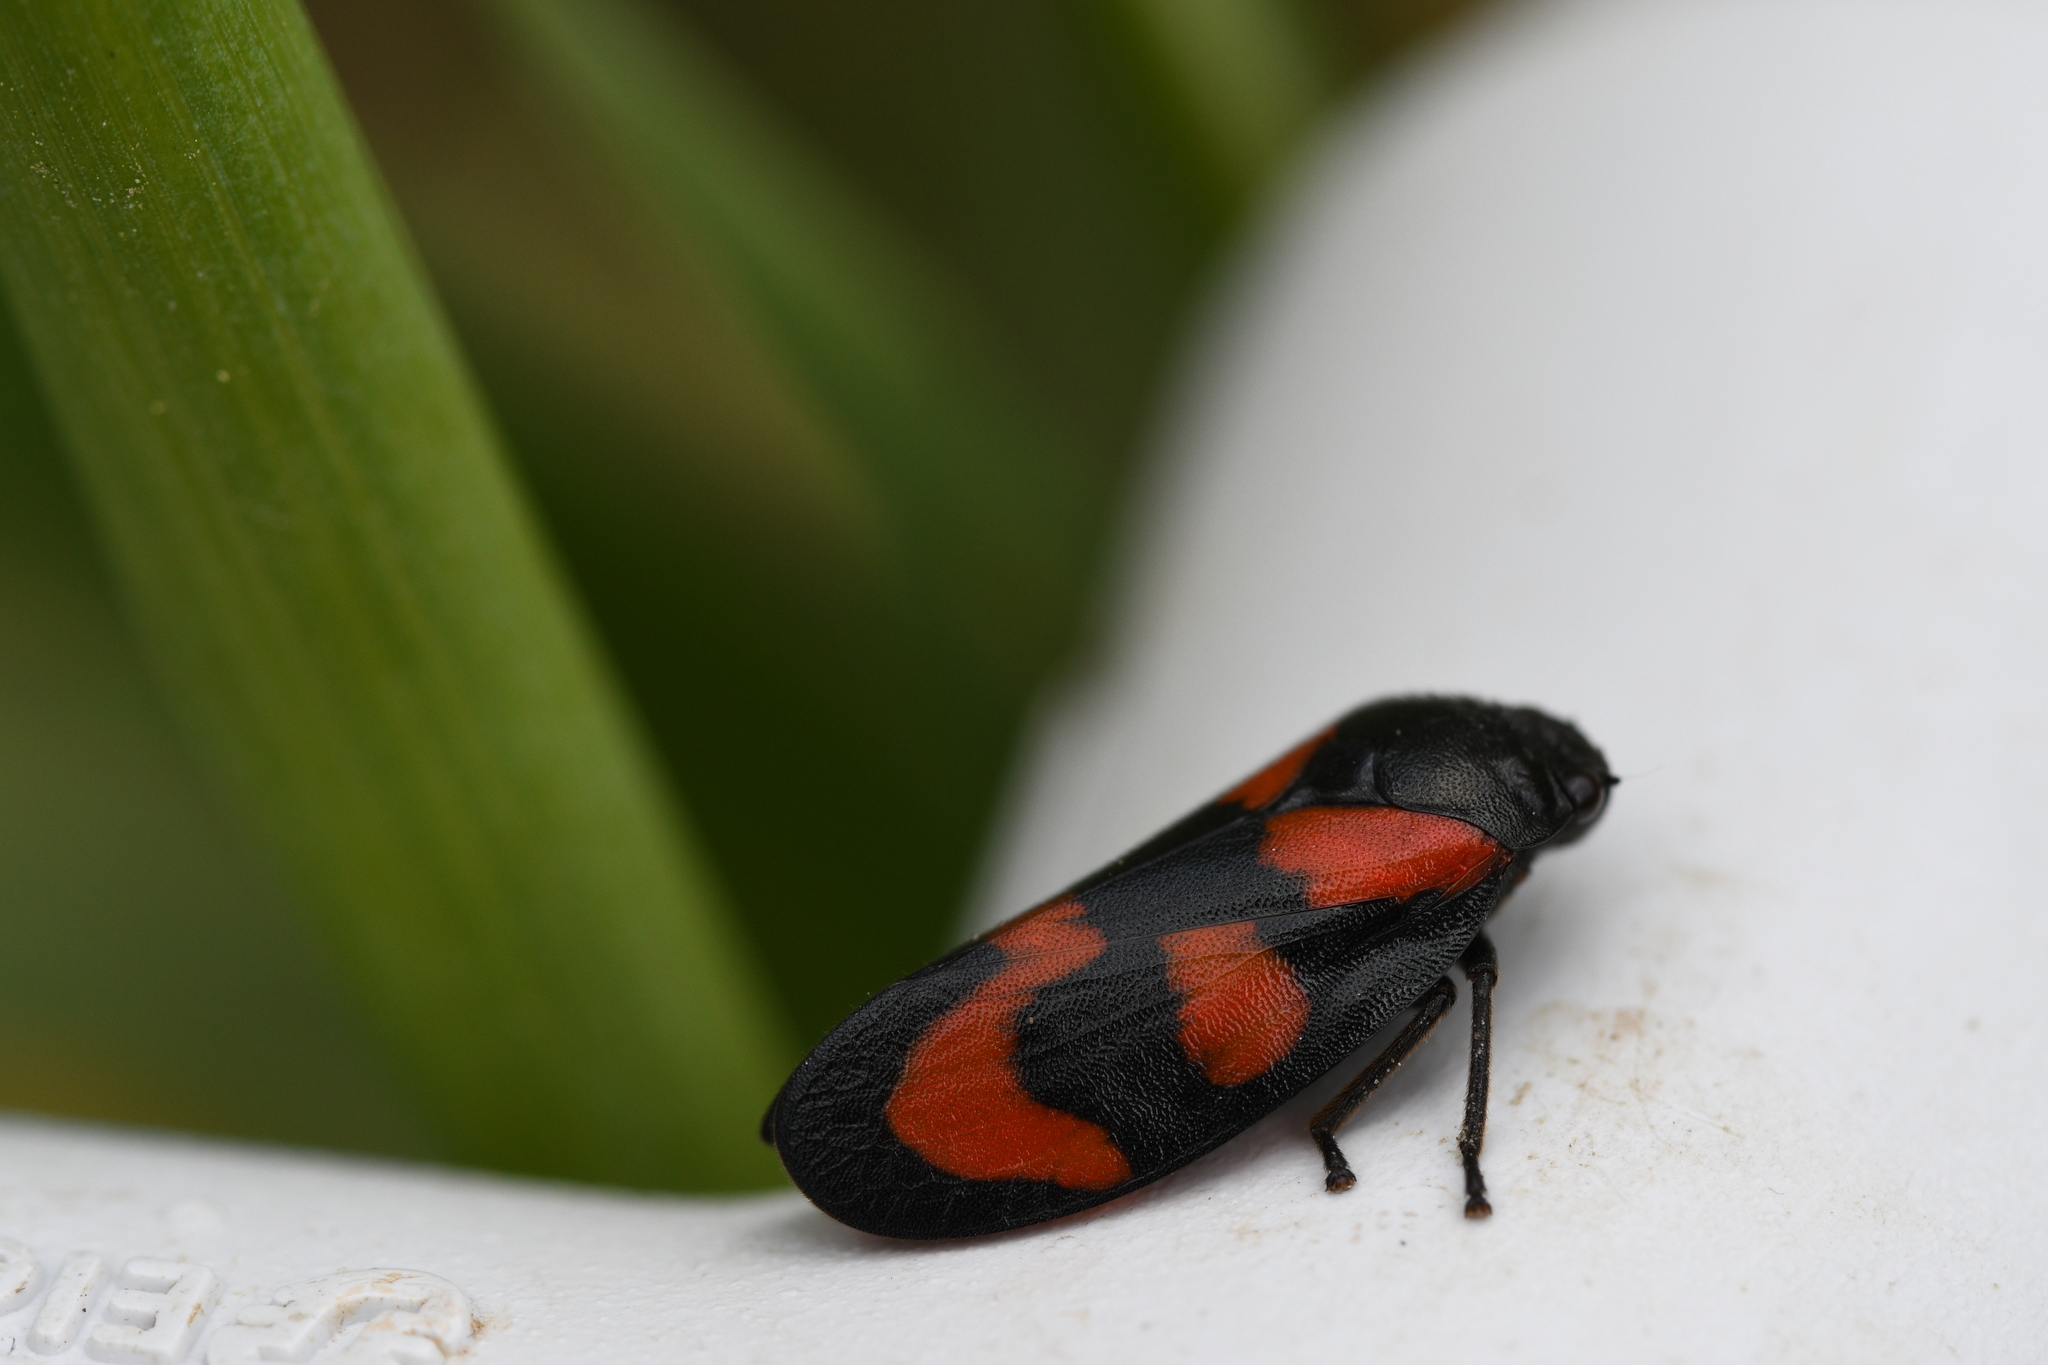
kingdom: Animalia
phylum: Arthropoda
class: Insecta
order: Hemiptera
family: Cercopidae
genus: Cercopis
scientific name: Cercopis vulnerata
